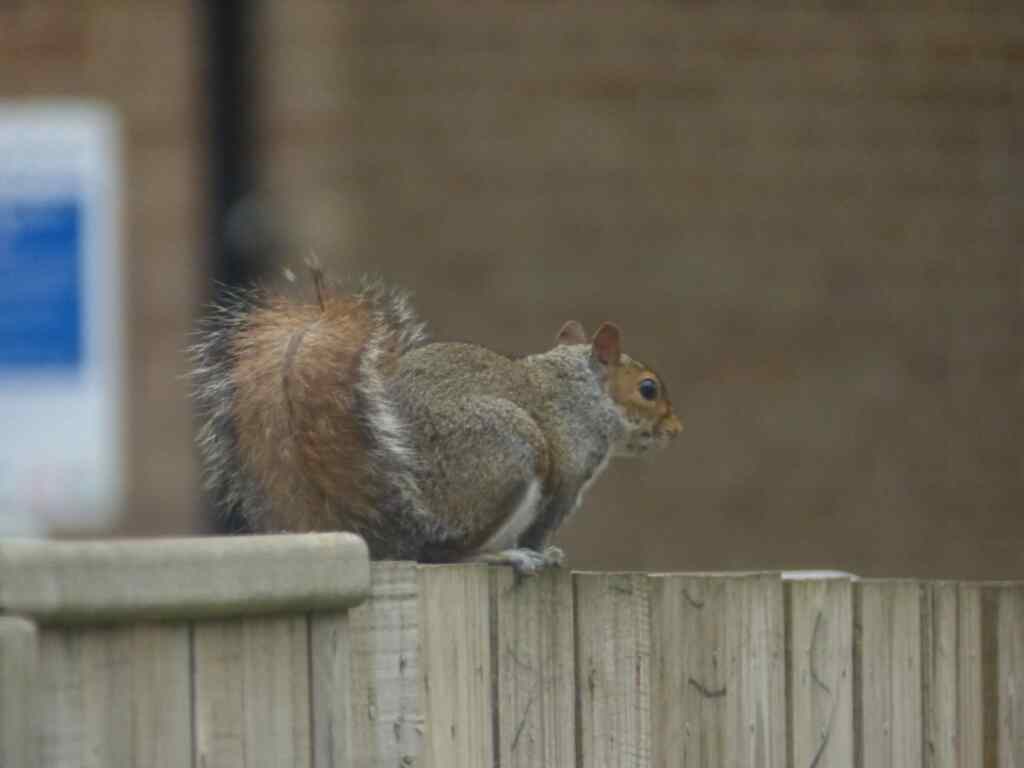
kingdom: Animalia
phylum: Chordata
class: Mammalia
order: Rodentia
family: Sciuridae
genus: Sciurus
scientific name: Sciurus carolinensis
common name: Eastern gray squirrel
